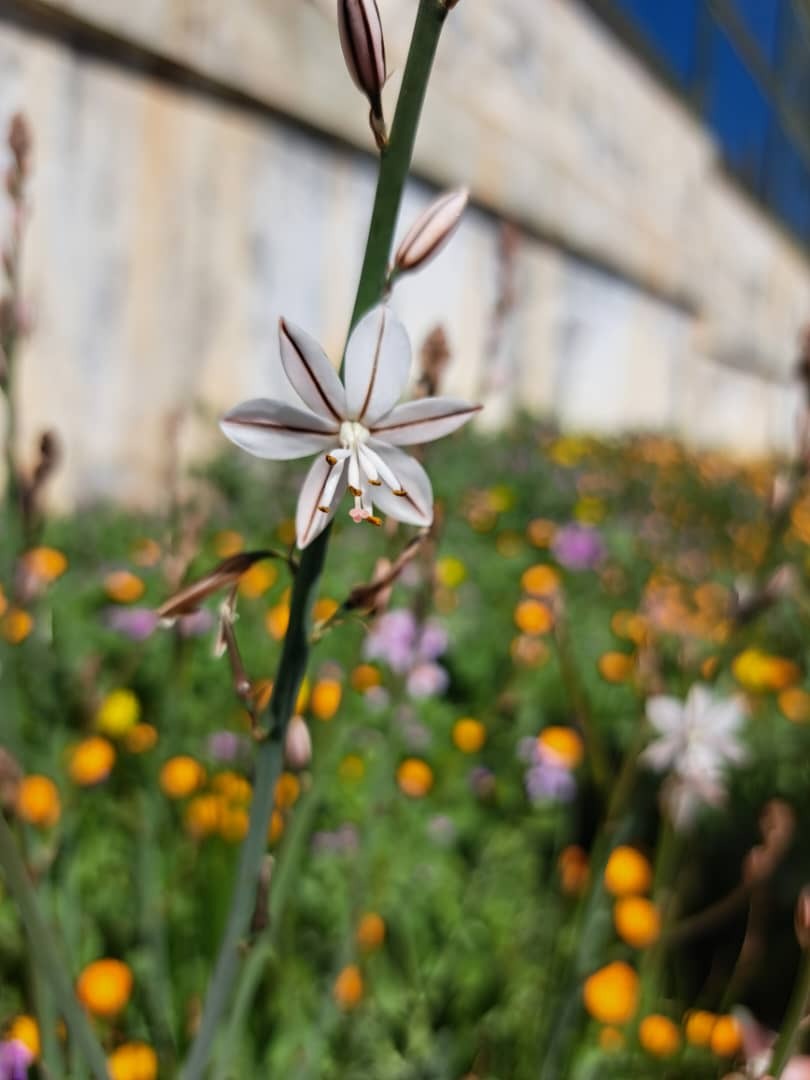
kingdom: Plantae
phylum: Tracheophyta
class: Liliopsida
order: Asparagales
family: Asphodelaceae
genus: Asphodelus
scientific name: Asphodelus fistulosus
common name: Onionweed
